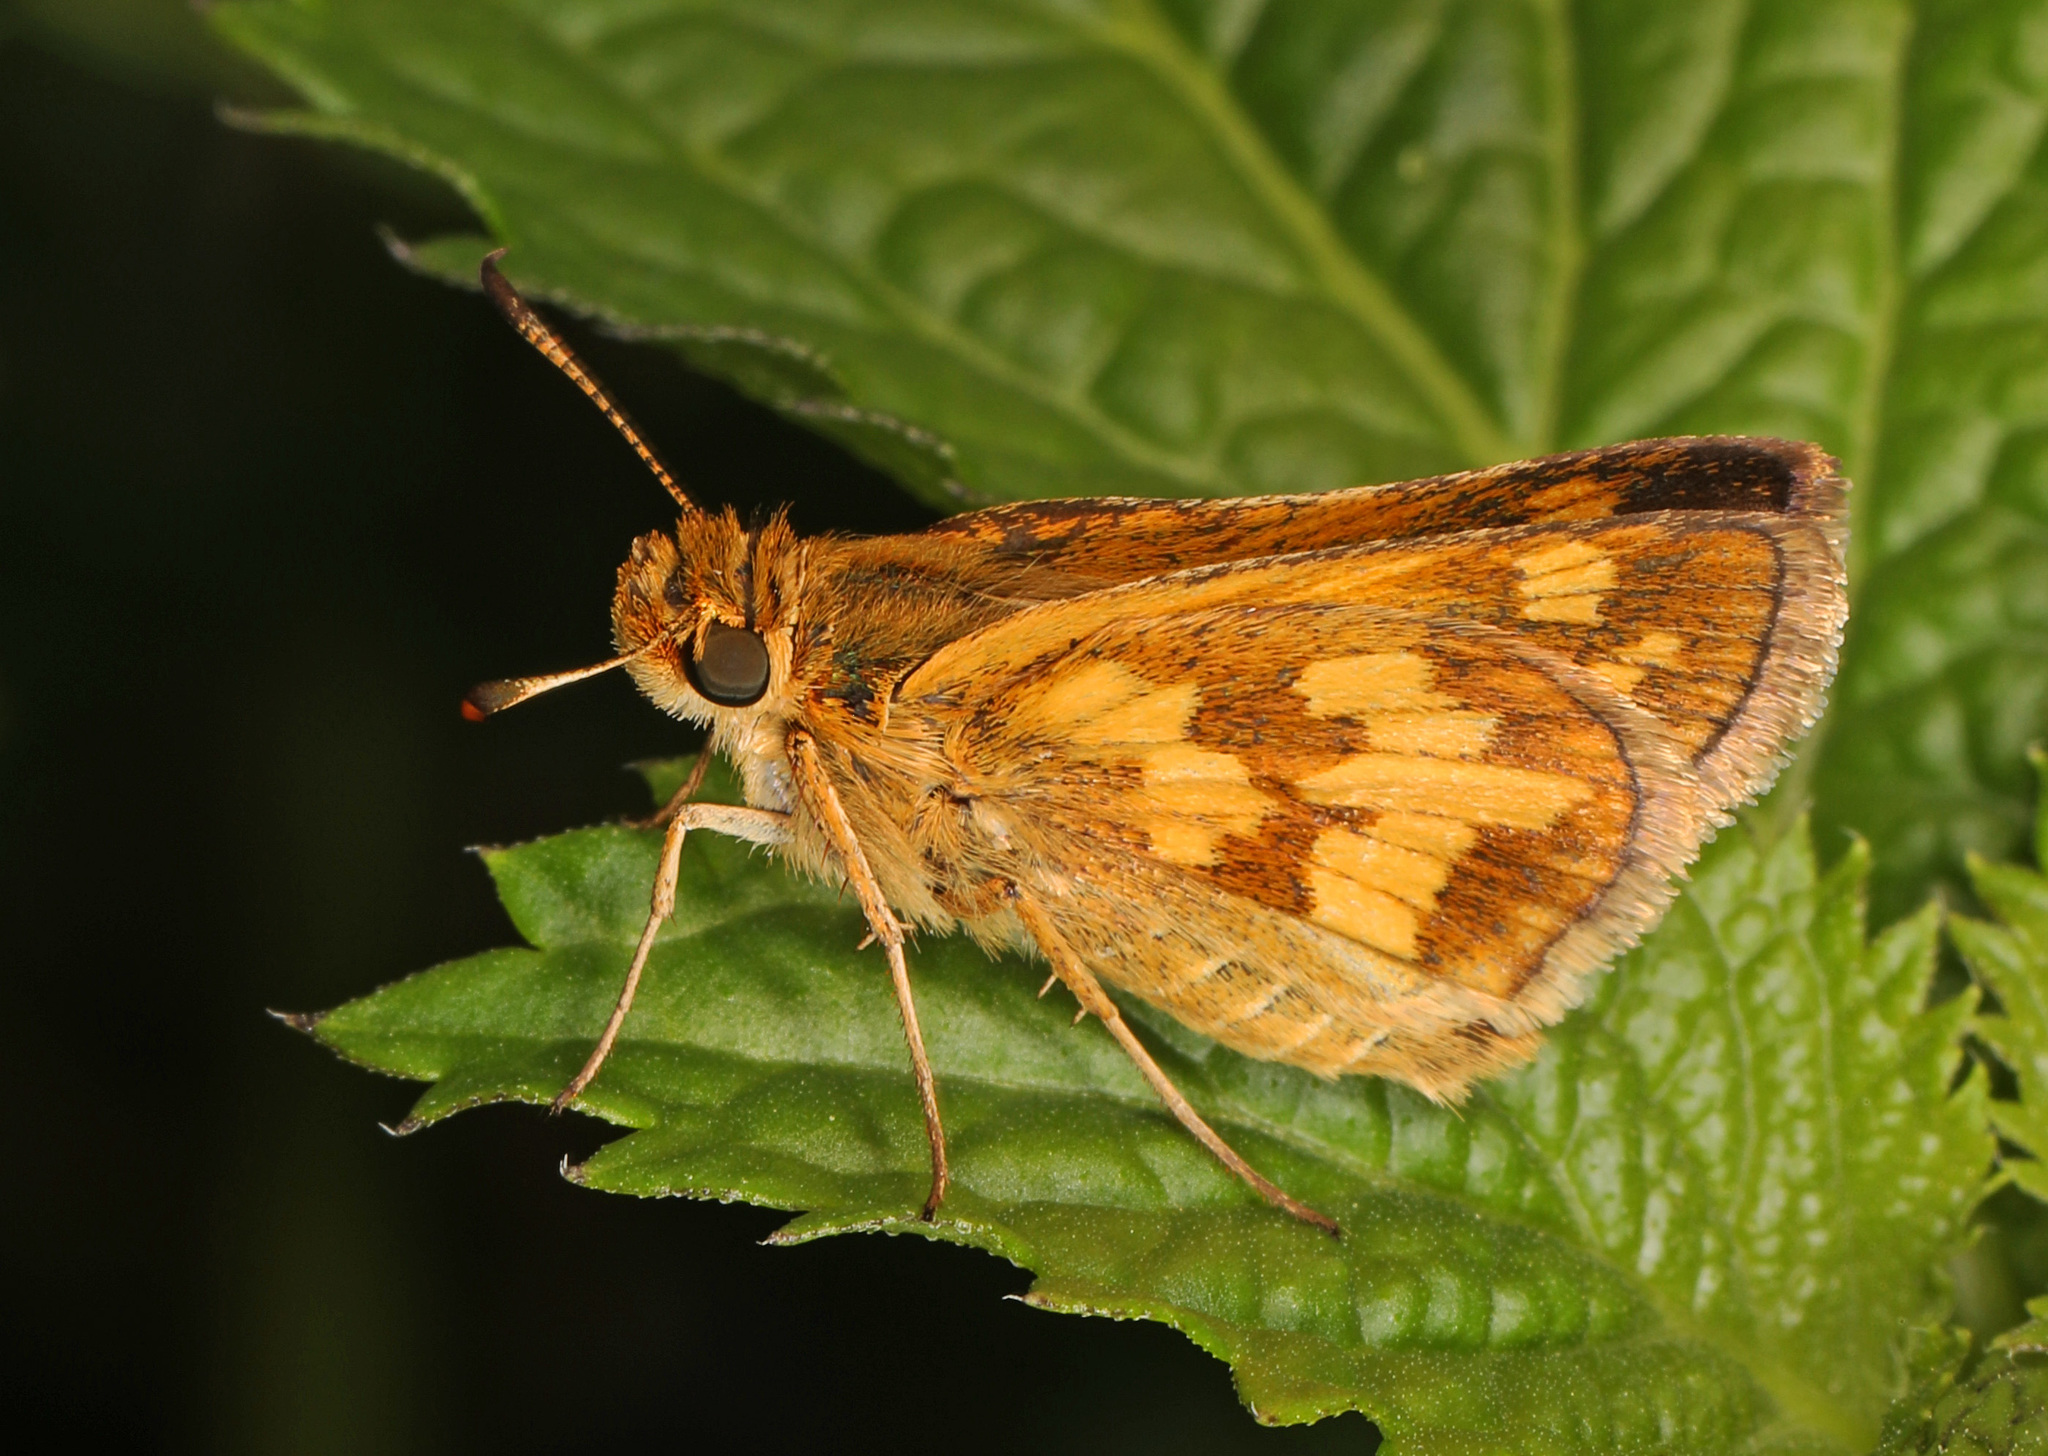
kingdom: Animalia
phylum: Arthropoda
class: Insecta
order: Lepidoptera
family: Hesperiidae
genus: Polites
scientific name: Polites coras
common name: Peck's skipper
